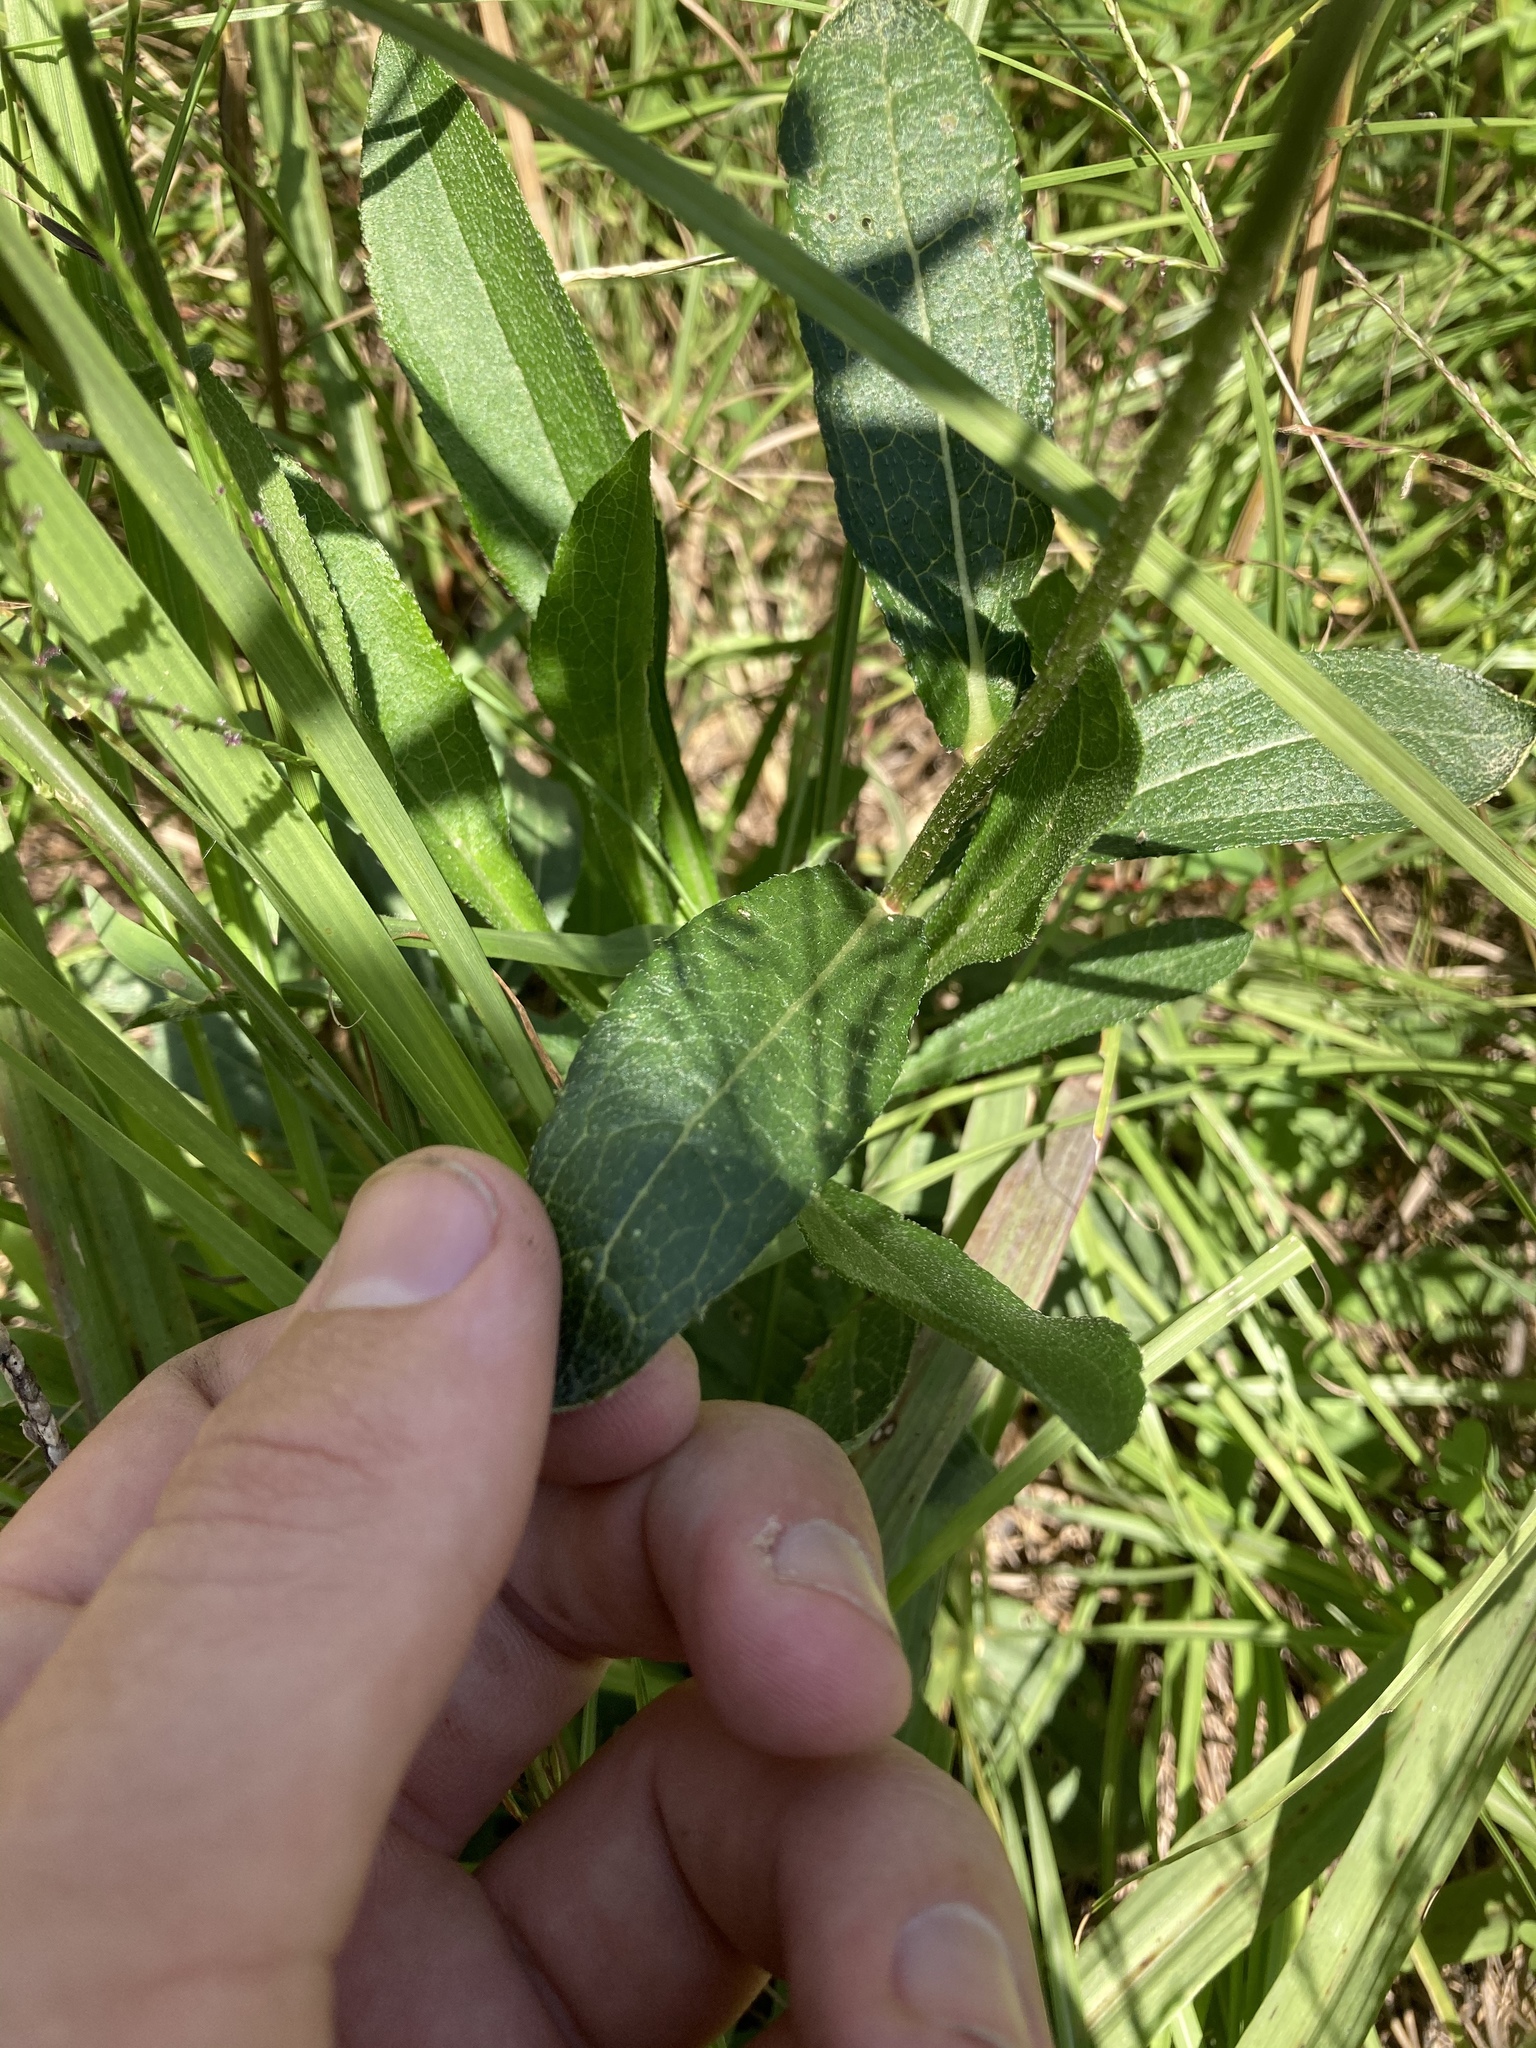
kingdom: Plantae
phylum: Tracheophyta
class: Magnoliopsida
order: Asterales
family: Asteraceae
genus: Rudbeckia
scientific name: Rudbeckia hirta
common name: Black-eyed-susan
